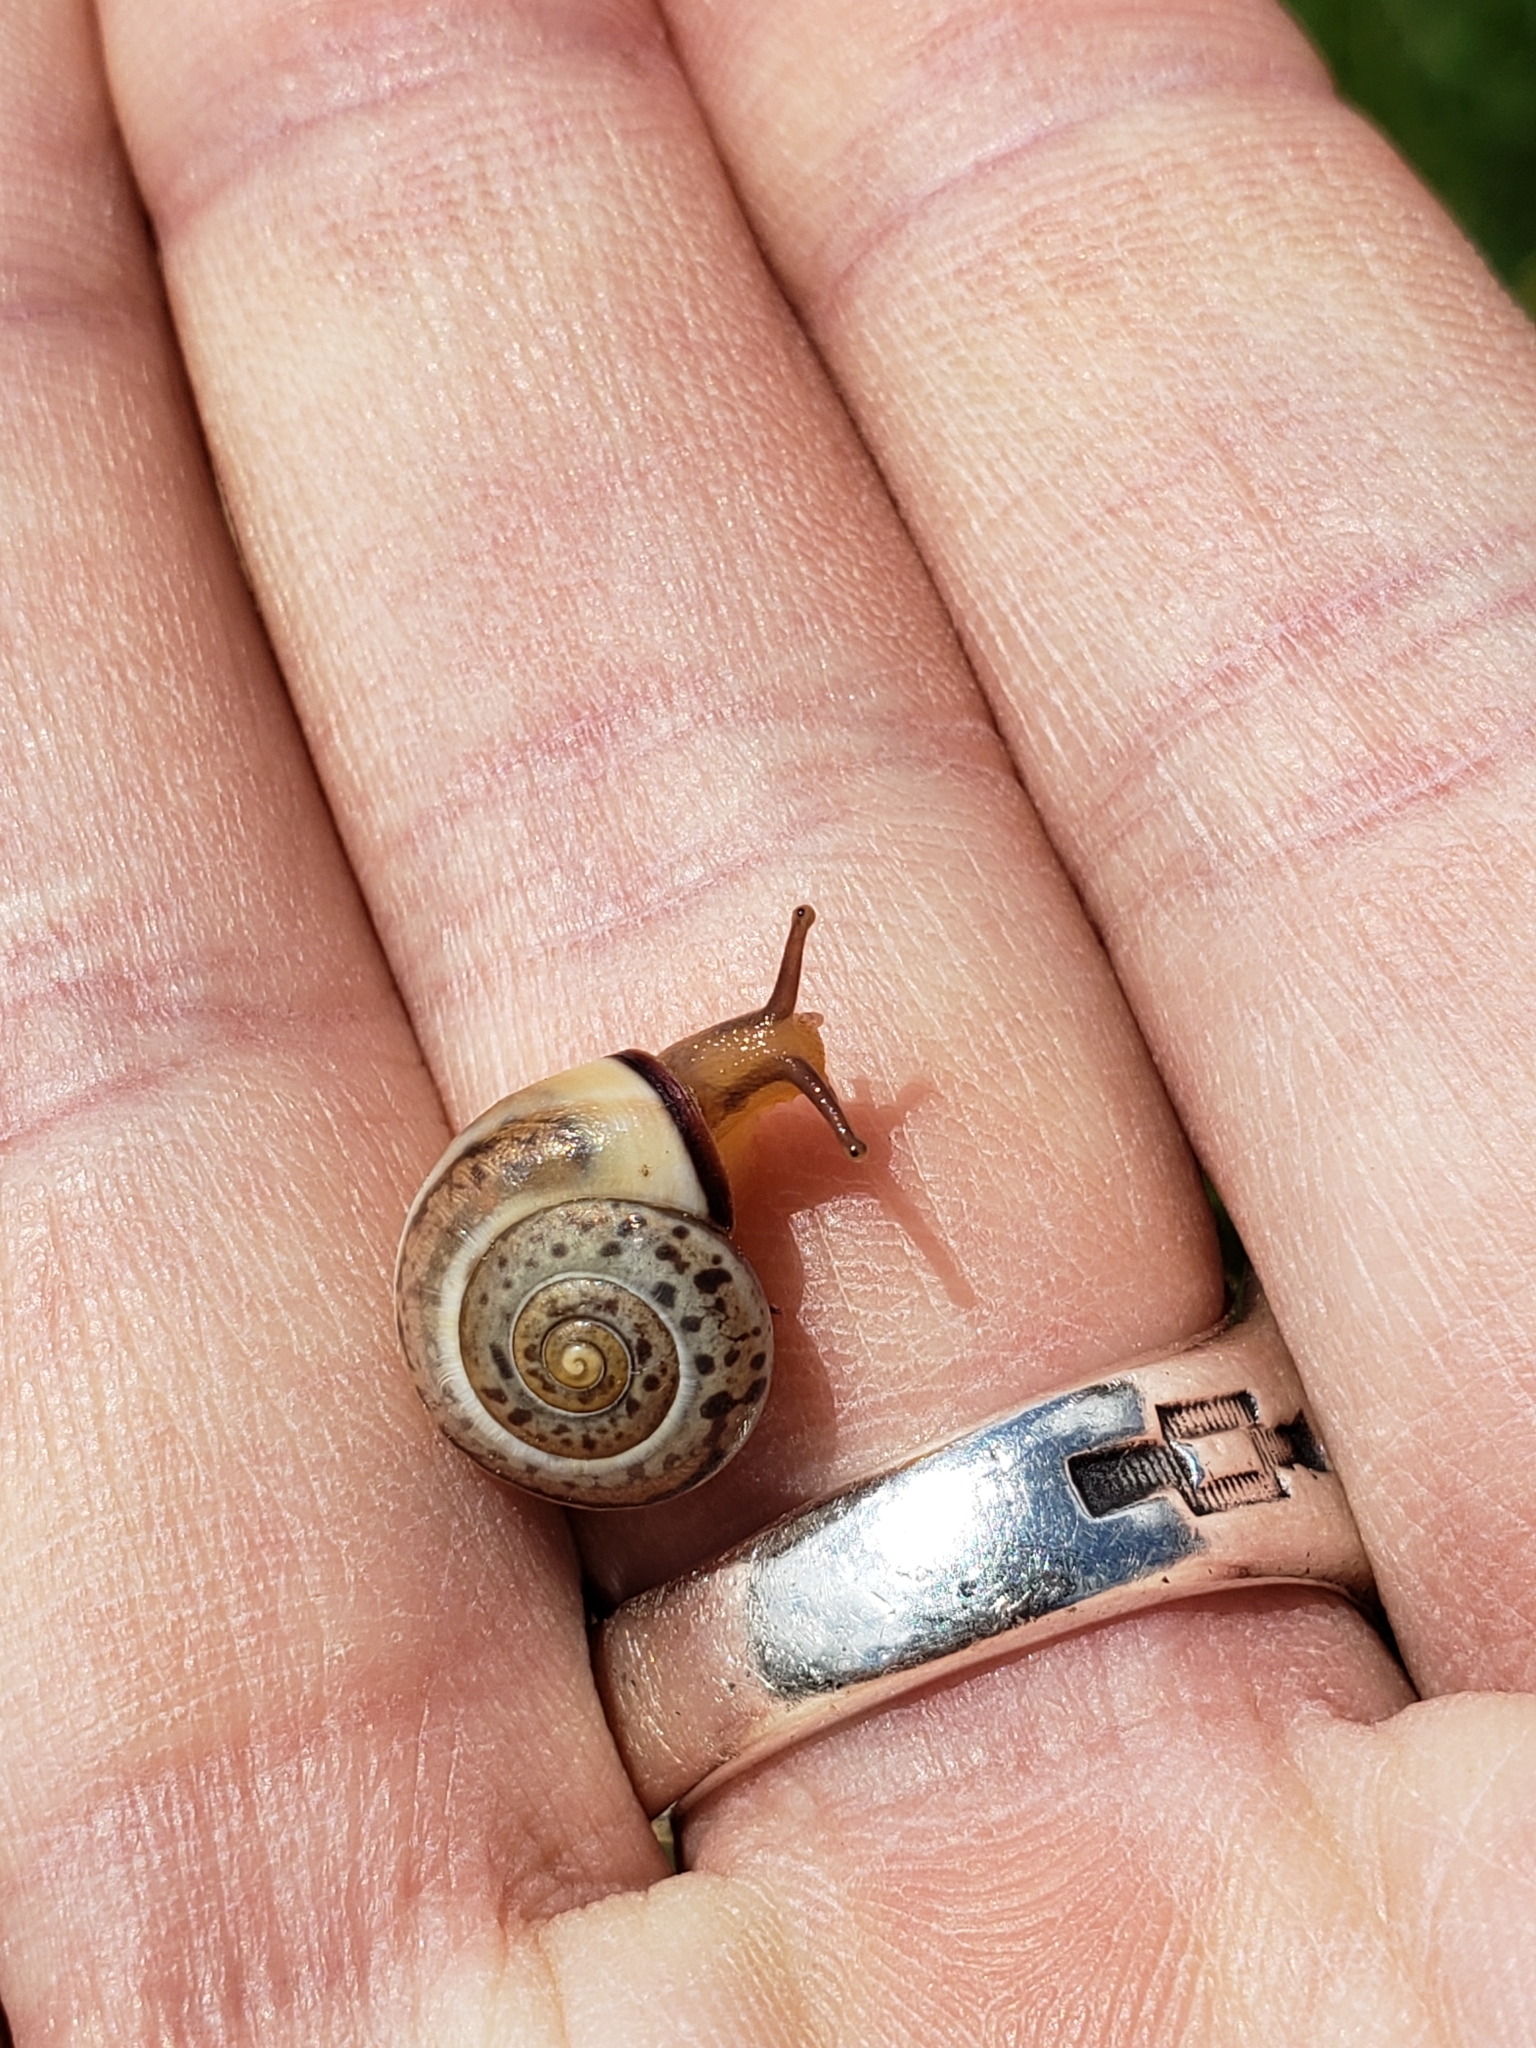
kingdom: Animalia
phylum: Mollusca
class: Gastropoda
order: Stylommatophora
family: Hygromiidae
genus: Monacha
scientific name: Monacha syriaca
